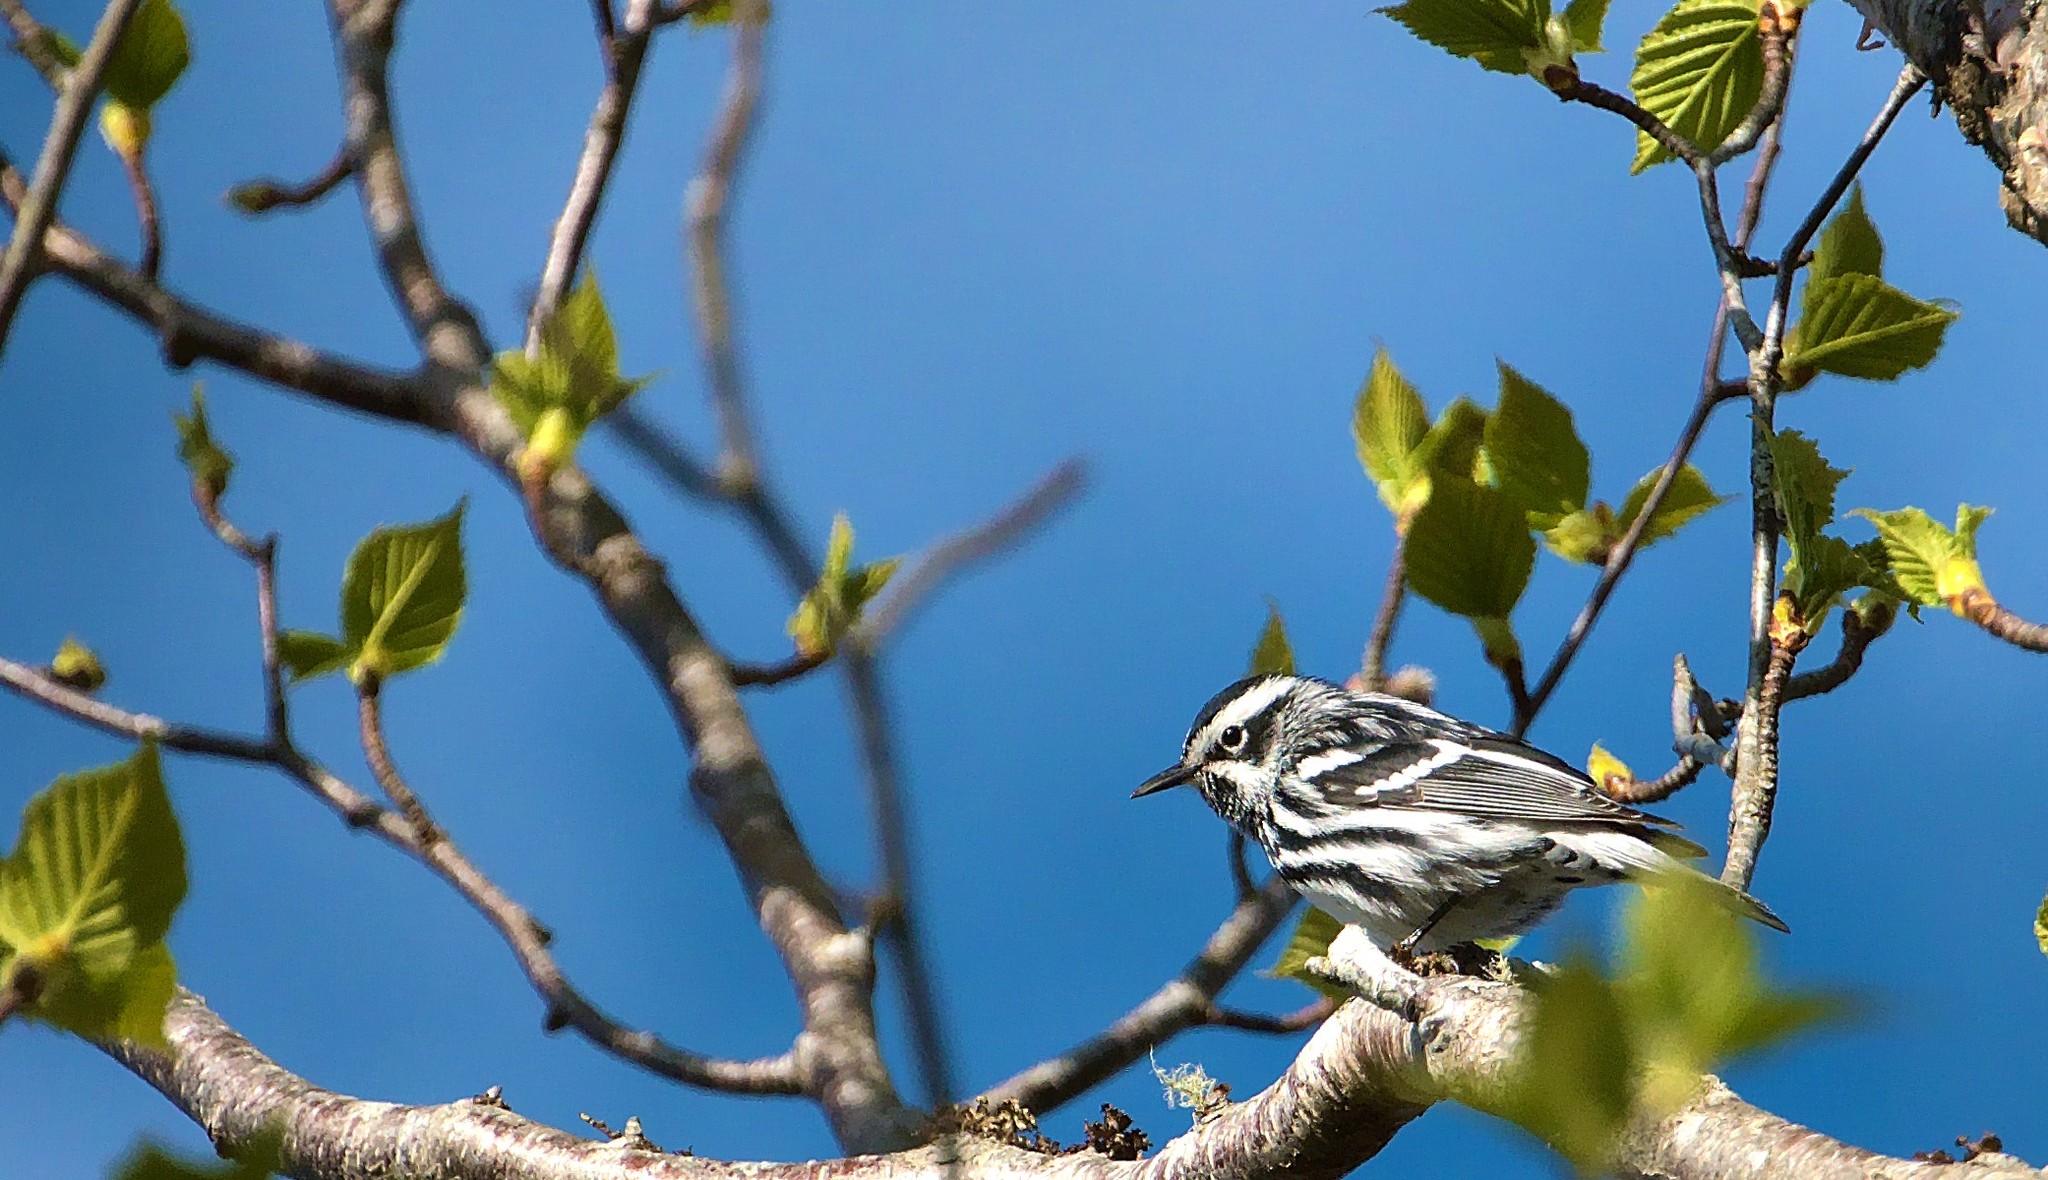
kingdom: Animalia
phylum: Chordata
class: Aves
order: Passeriformes
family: Parulidae
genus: Mniotilta
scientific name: Mniotilta varia
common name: Black-and-white warbler
